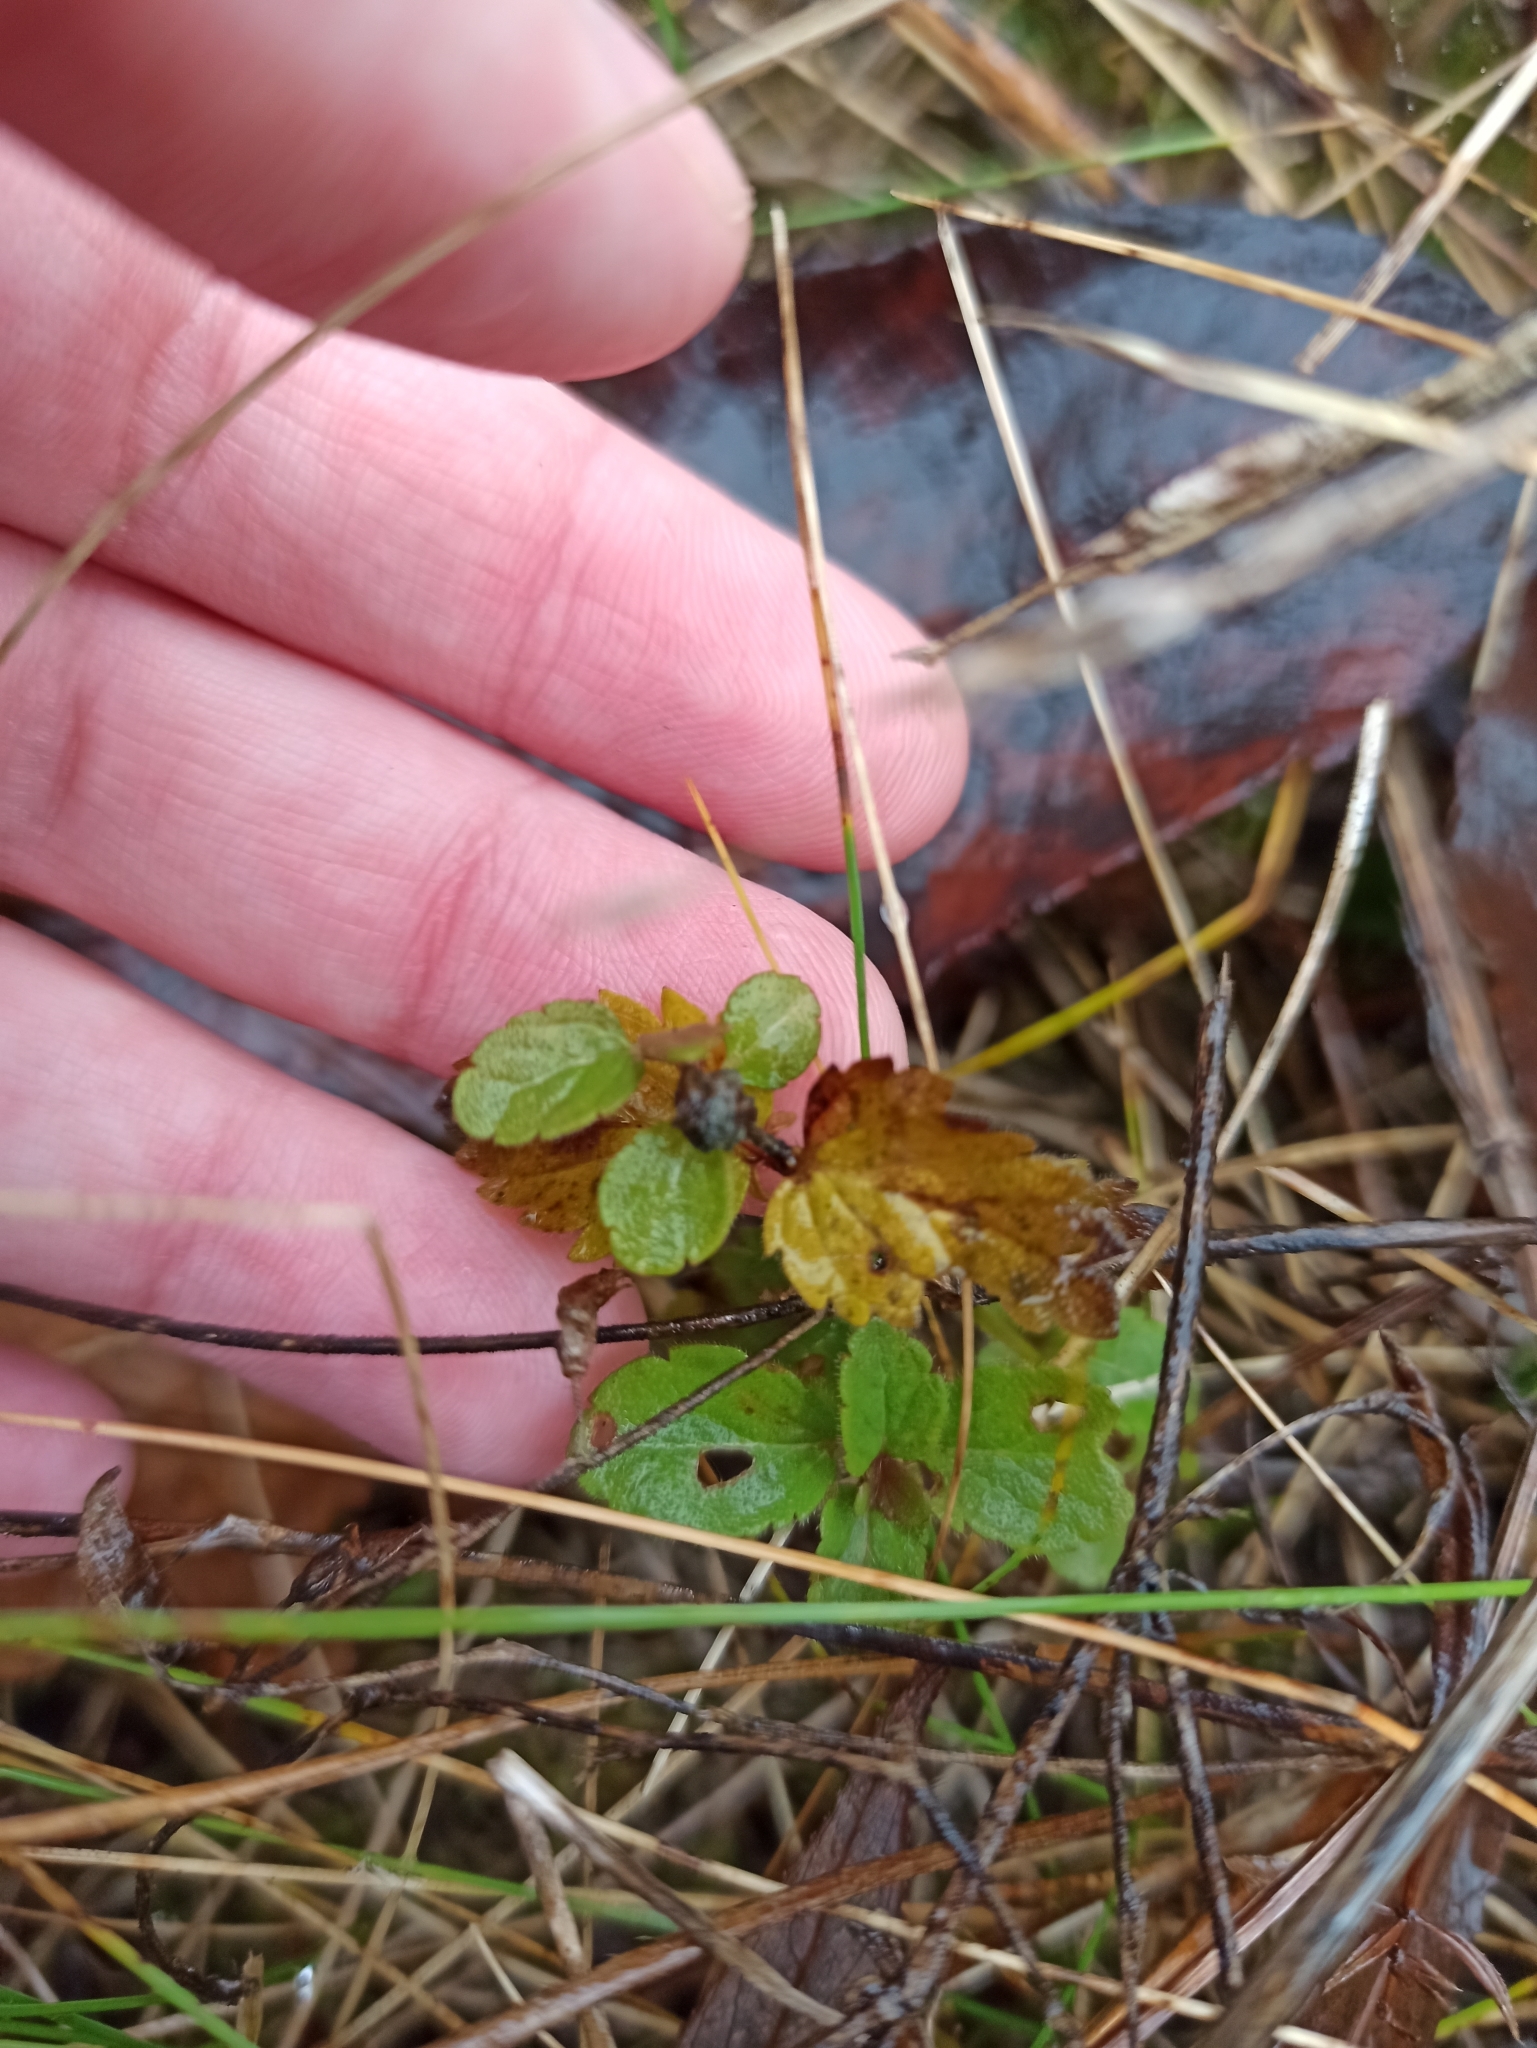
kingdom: Plantae
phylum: Tracheophyta
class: Magnoliopsida
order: Lamiales
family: Plantaginaceae
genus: Veronica
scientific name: Veronica chamaedrys
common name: Germander speedwell
